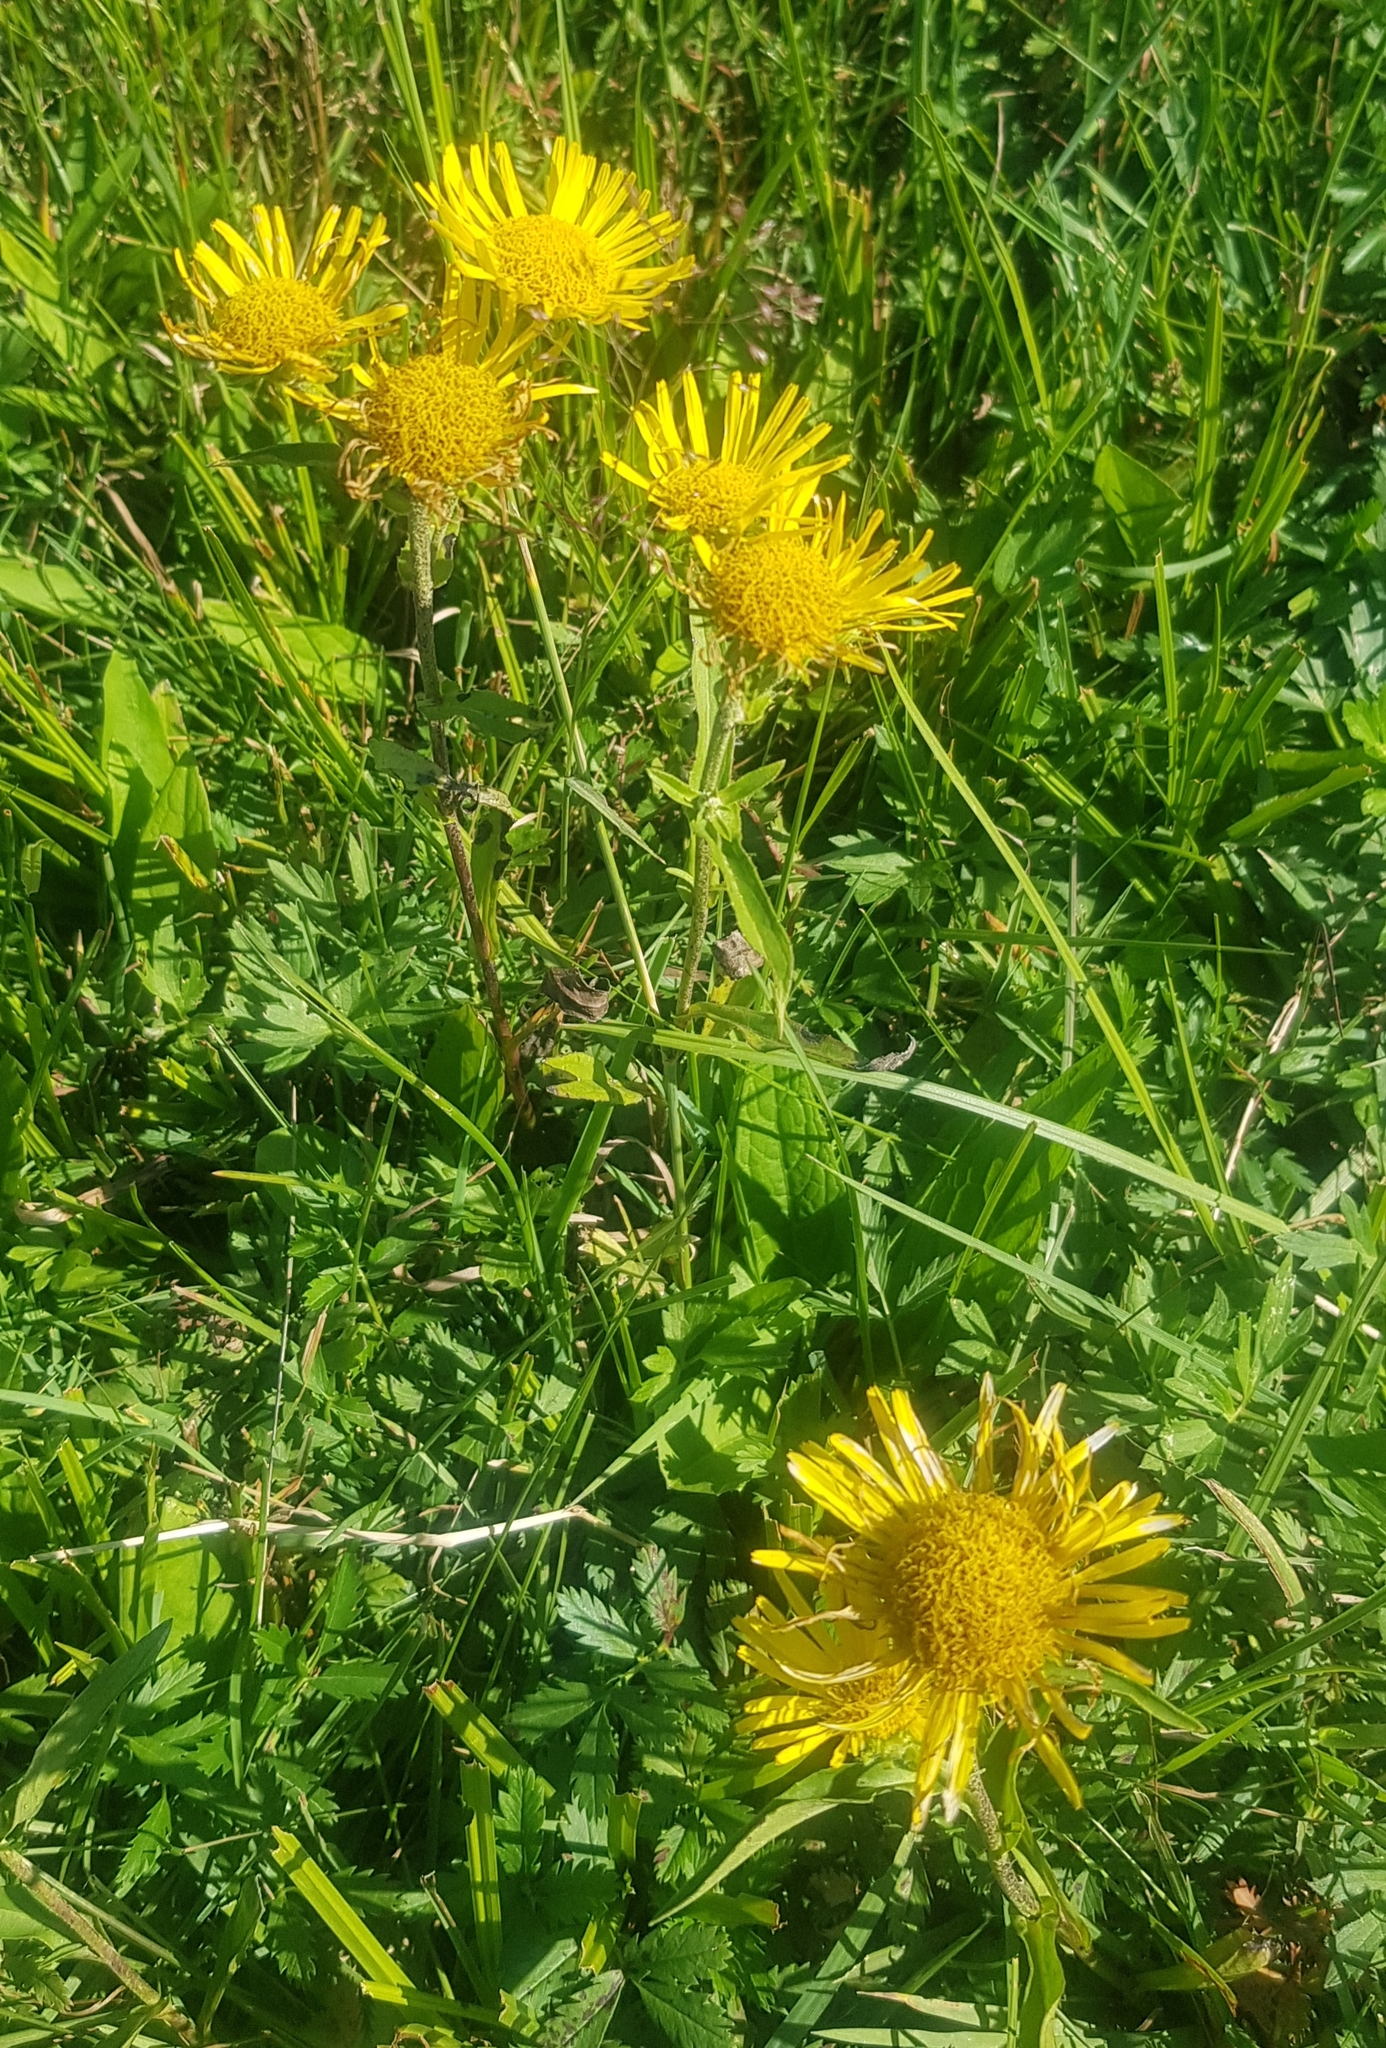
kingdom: Plantae
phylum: Tracheophyta
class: Magnoliopsida
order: Asterales
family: Asteraceae
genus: Pentanema
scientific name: Pentanema britannicum
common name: British elecampane
